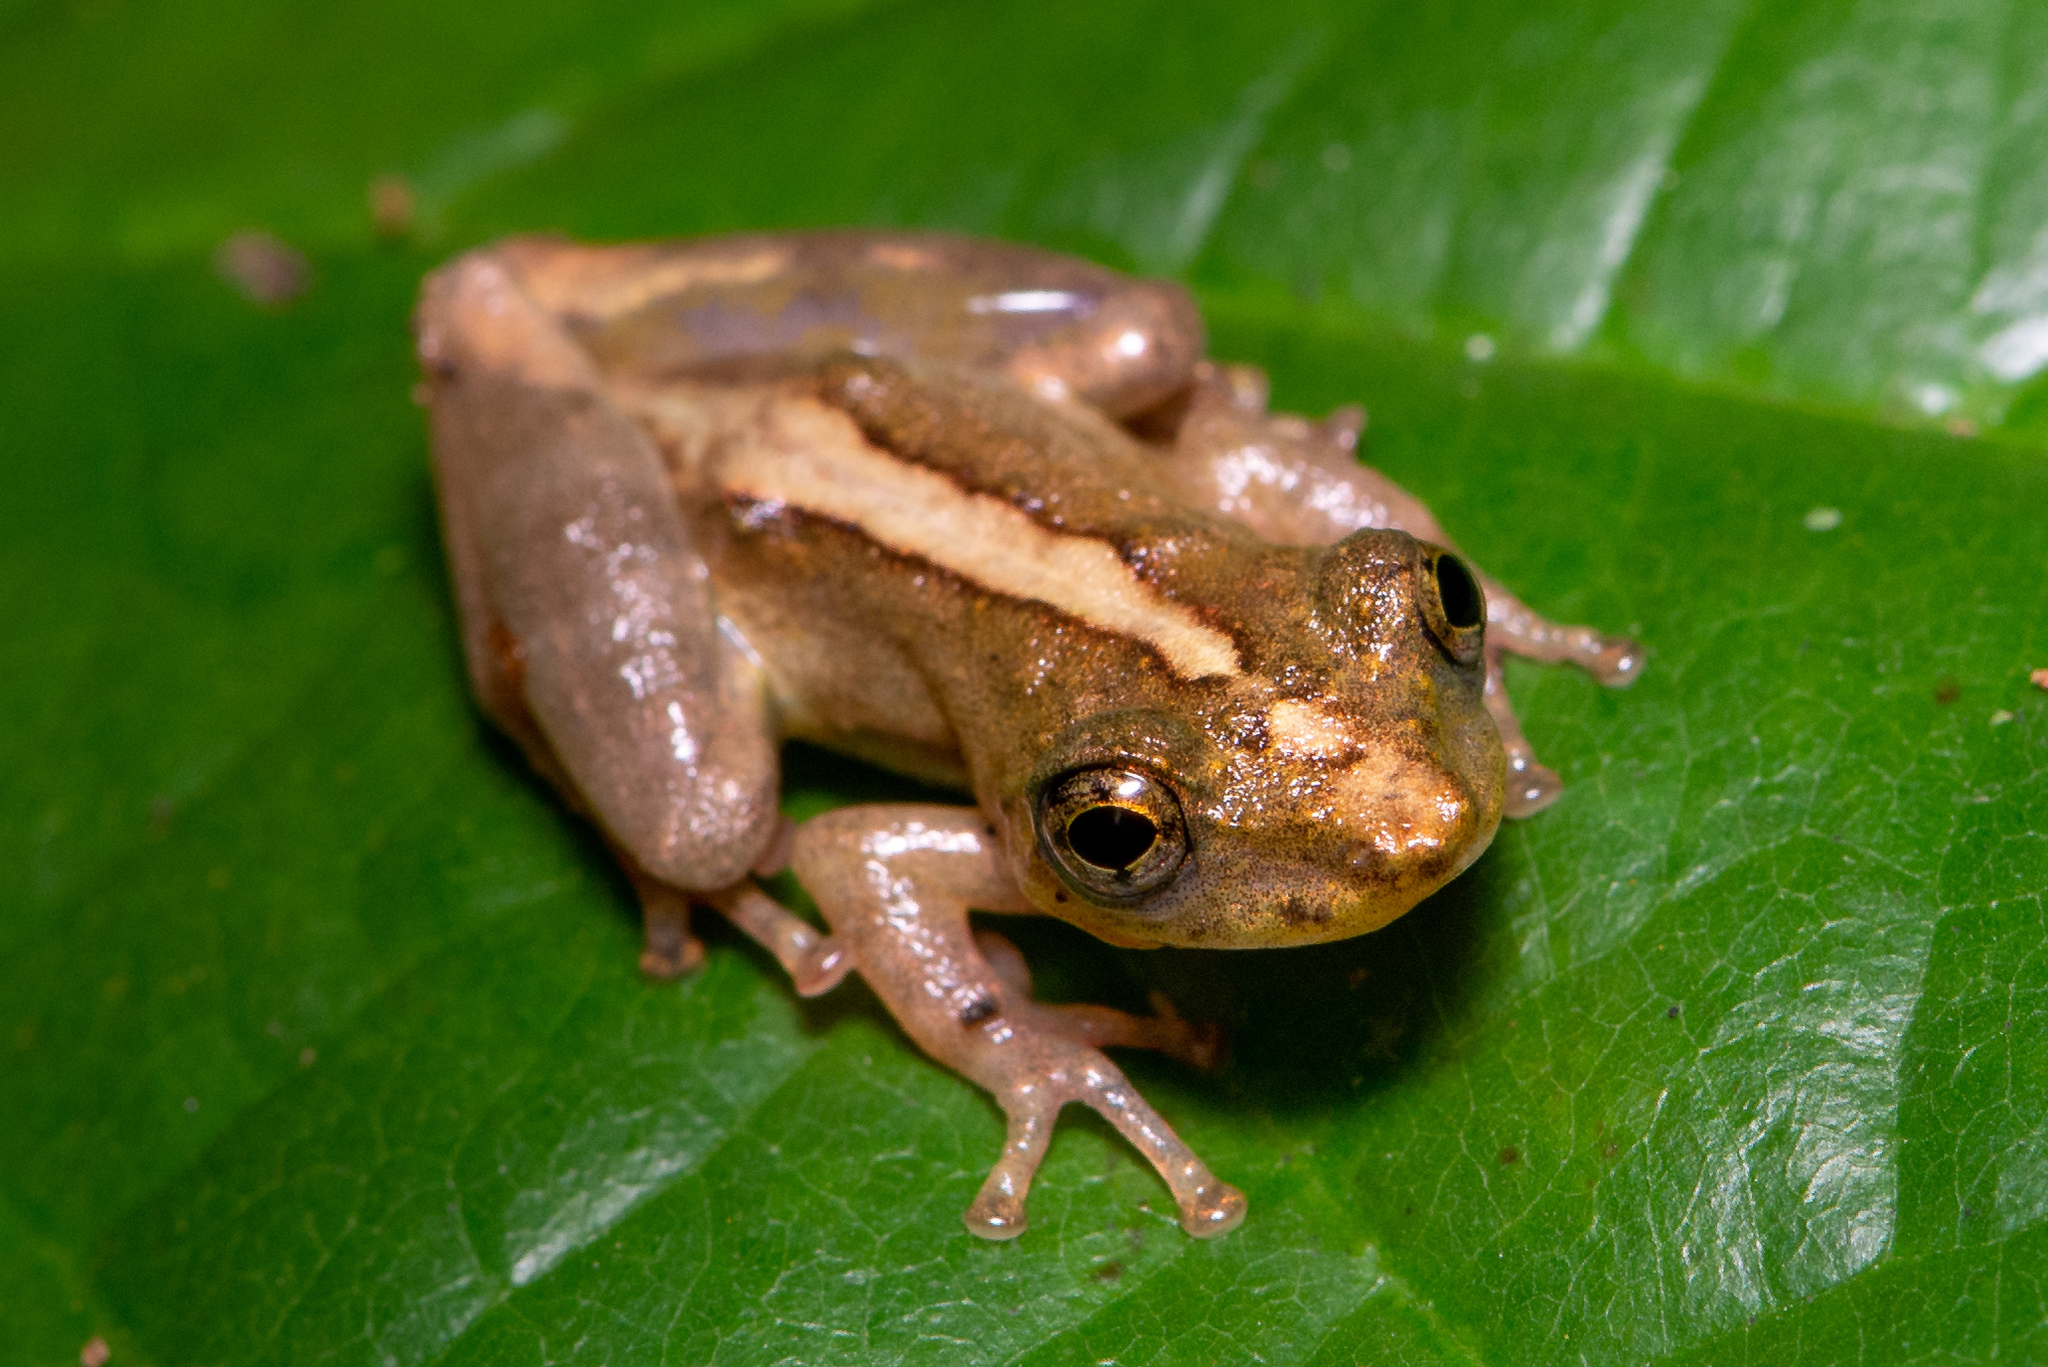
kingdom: Animalia
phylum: Chordata
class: Amphibia
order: Anura
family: Hylidae
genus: Ololygon
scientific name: Ololygon argyreornata
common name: Rio mutum snouted treefrog
